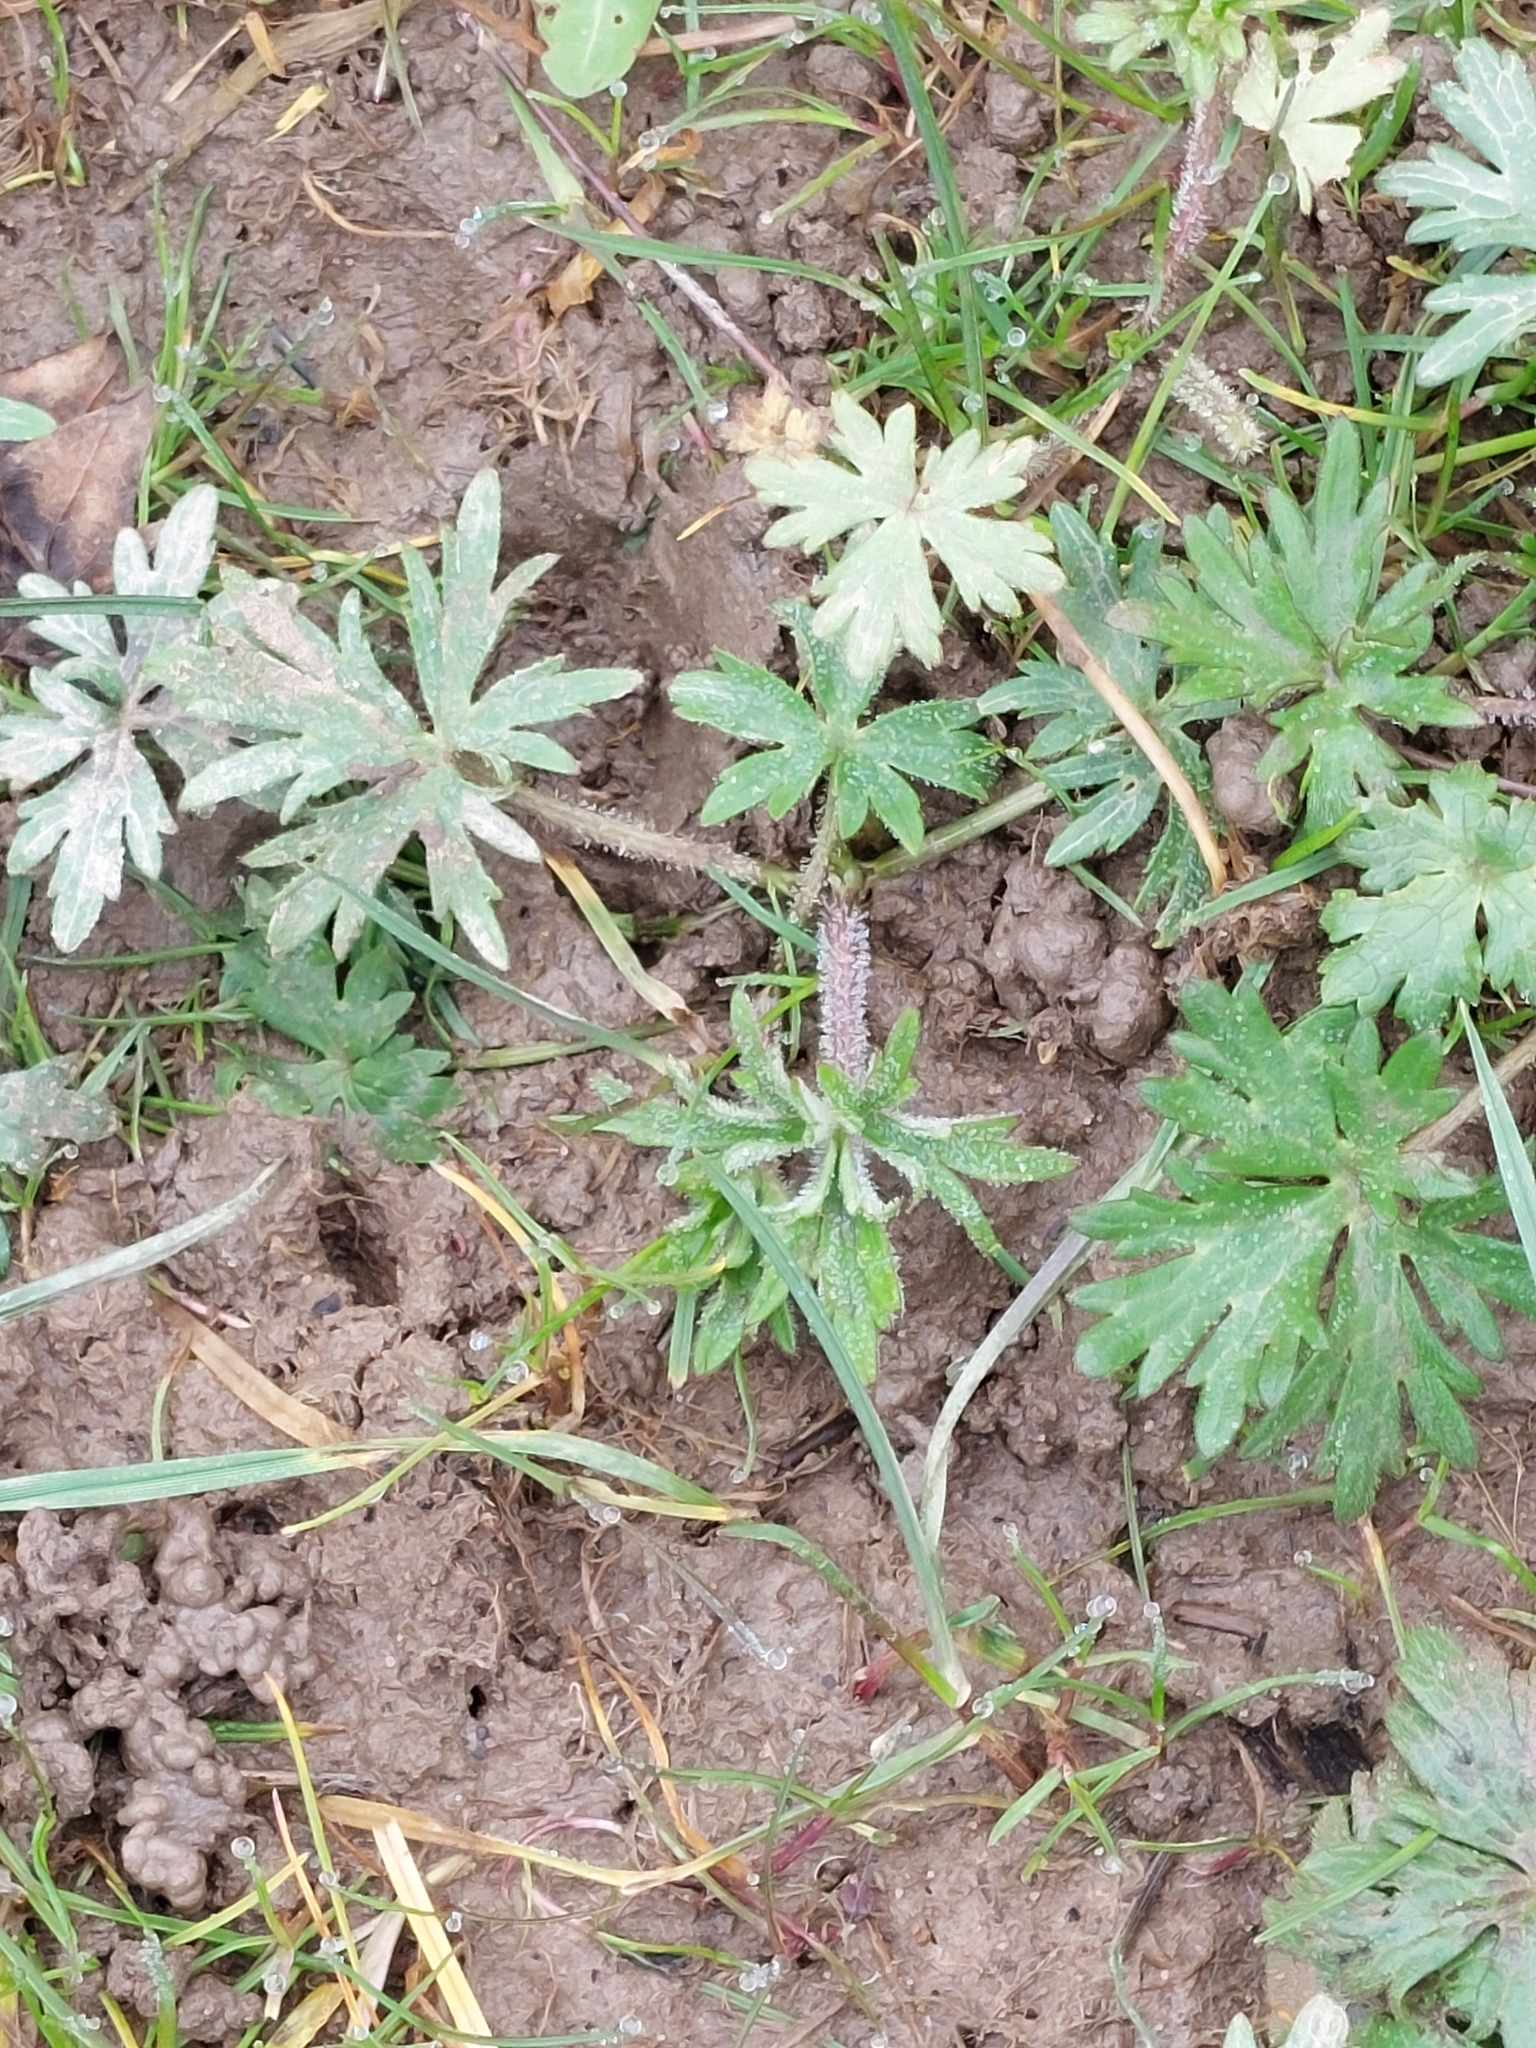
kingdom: Plantae
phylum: Tracheophyta
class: Magnoliopsida
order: Ranunculales
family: Ranunculaceae
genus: Ranunculus
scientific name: Ranunculus acris
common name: Meadow buttercup
